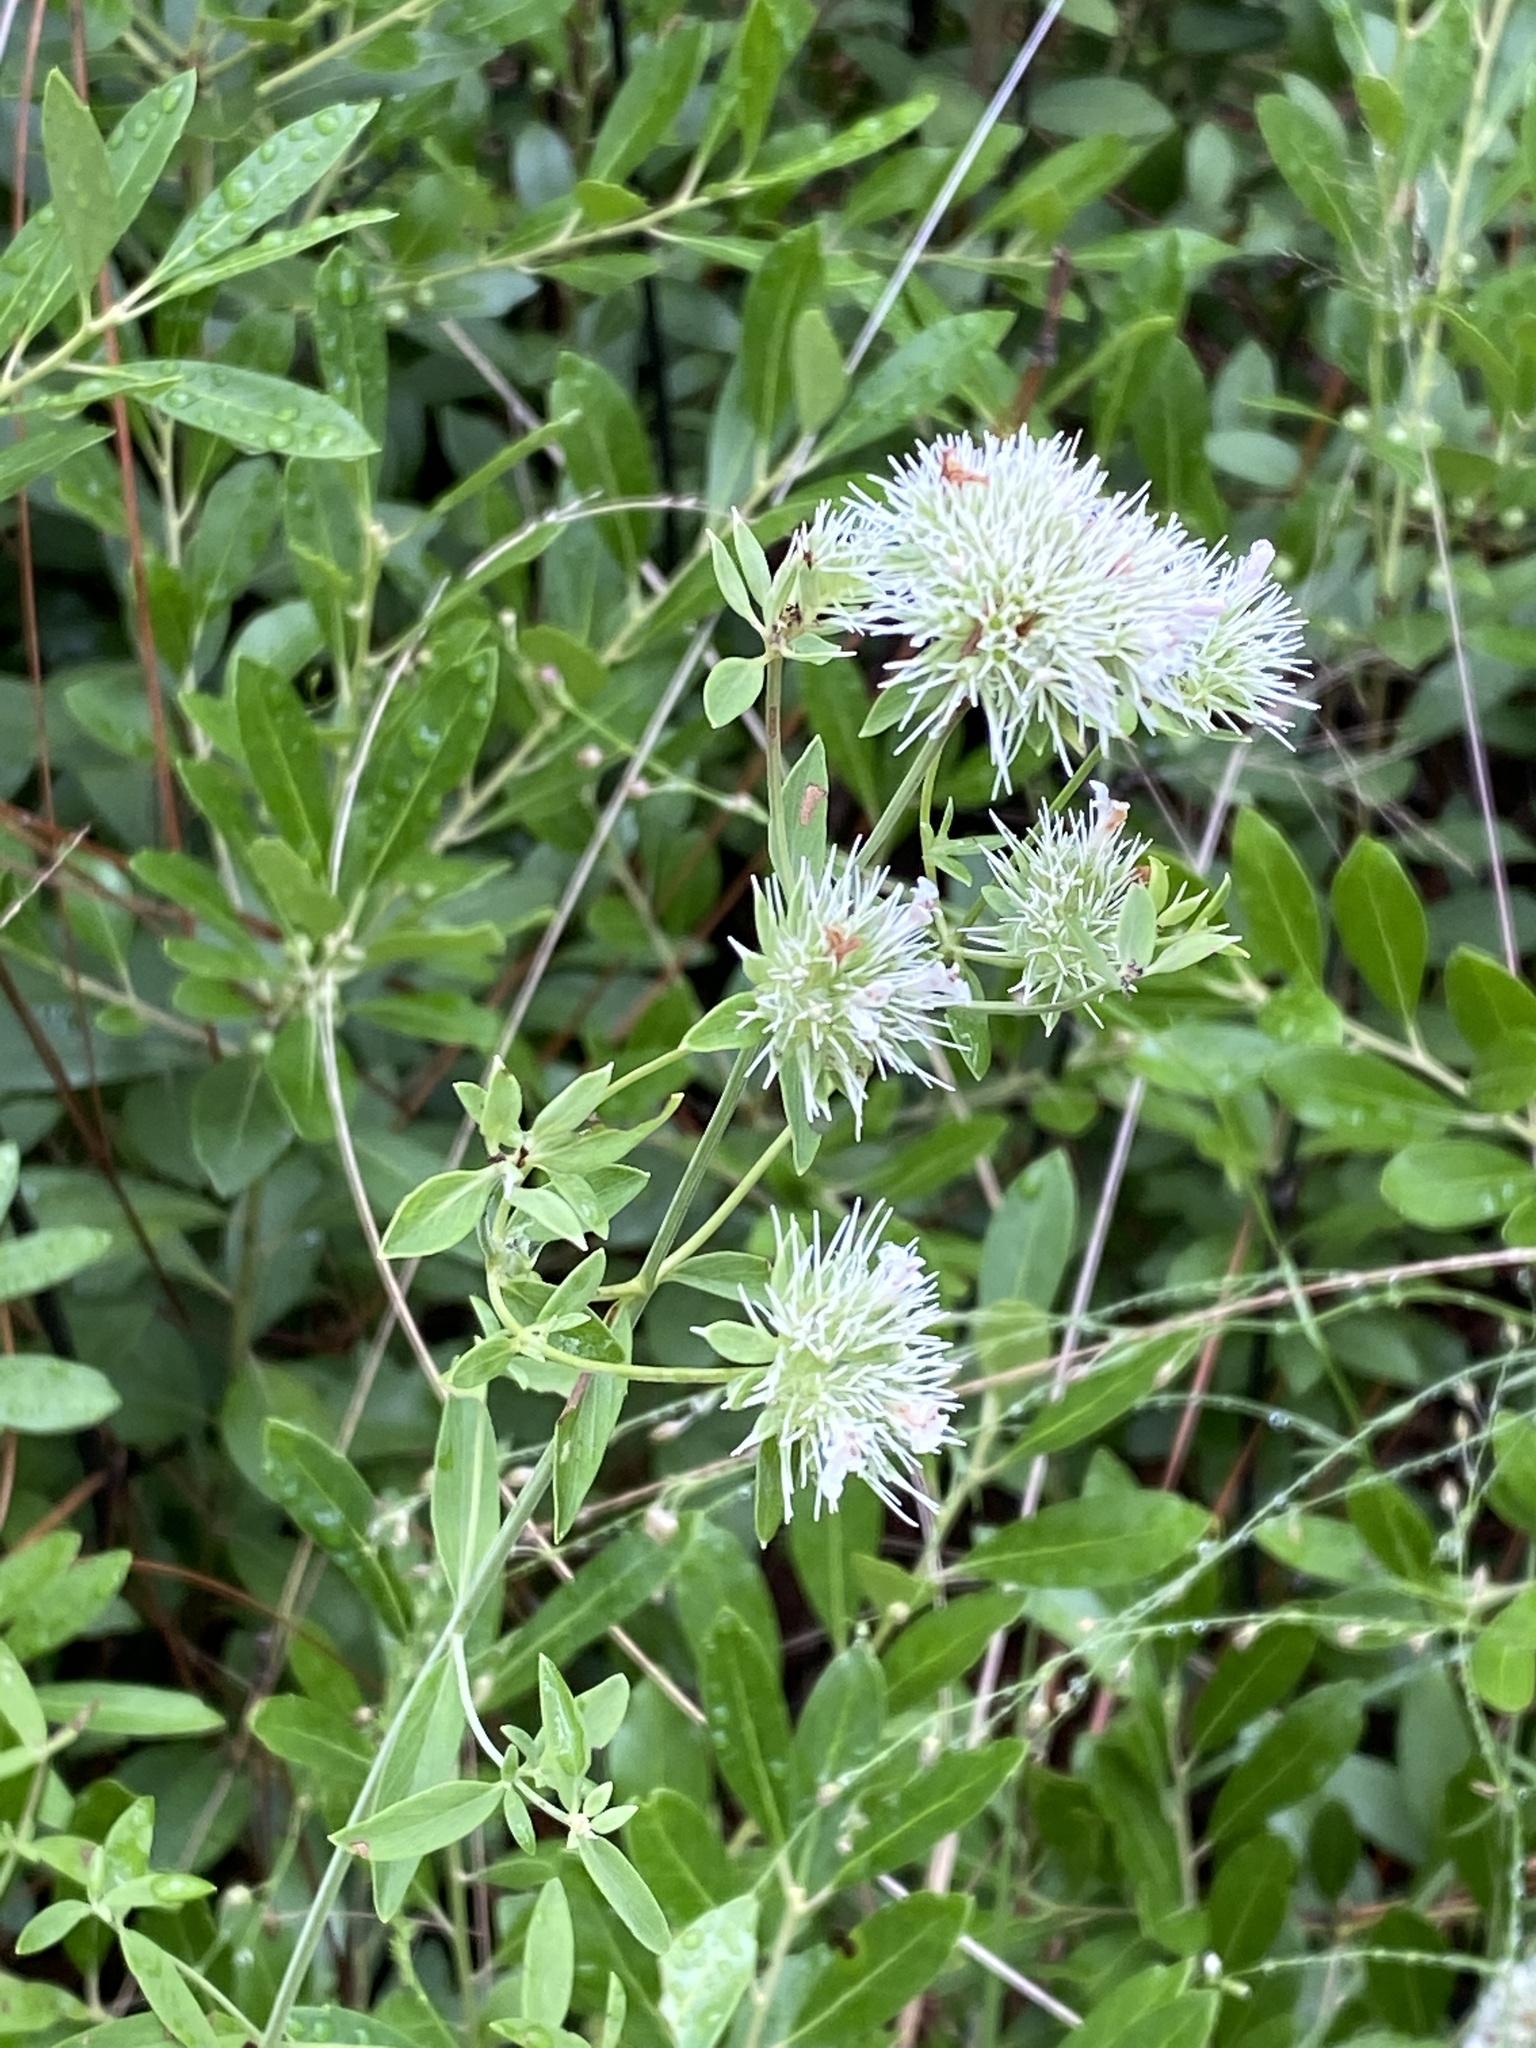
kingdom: Plantae
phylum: Tracheophyta
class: Magnoliopsida
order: Lamiales
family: Lamiaceae
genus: Pycnanthemum
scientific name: Pycnanthemum flexuosum
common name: Appalachian mountain-mint
